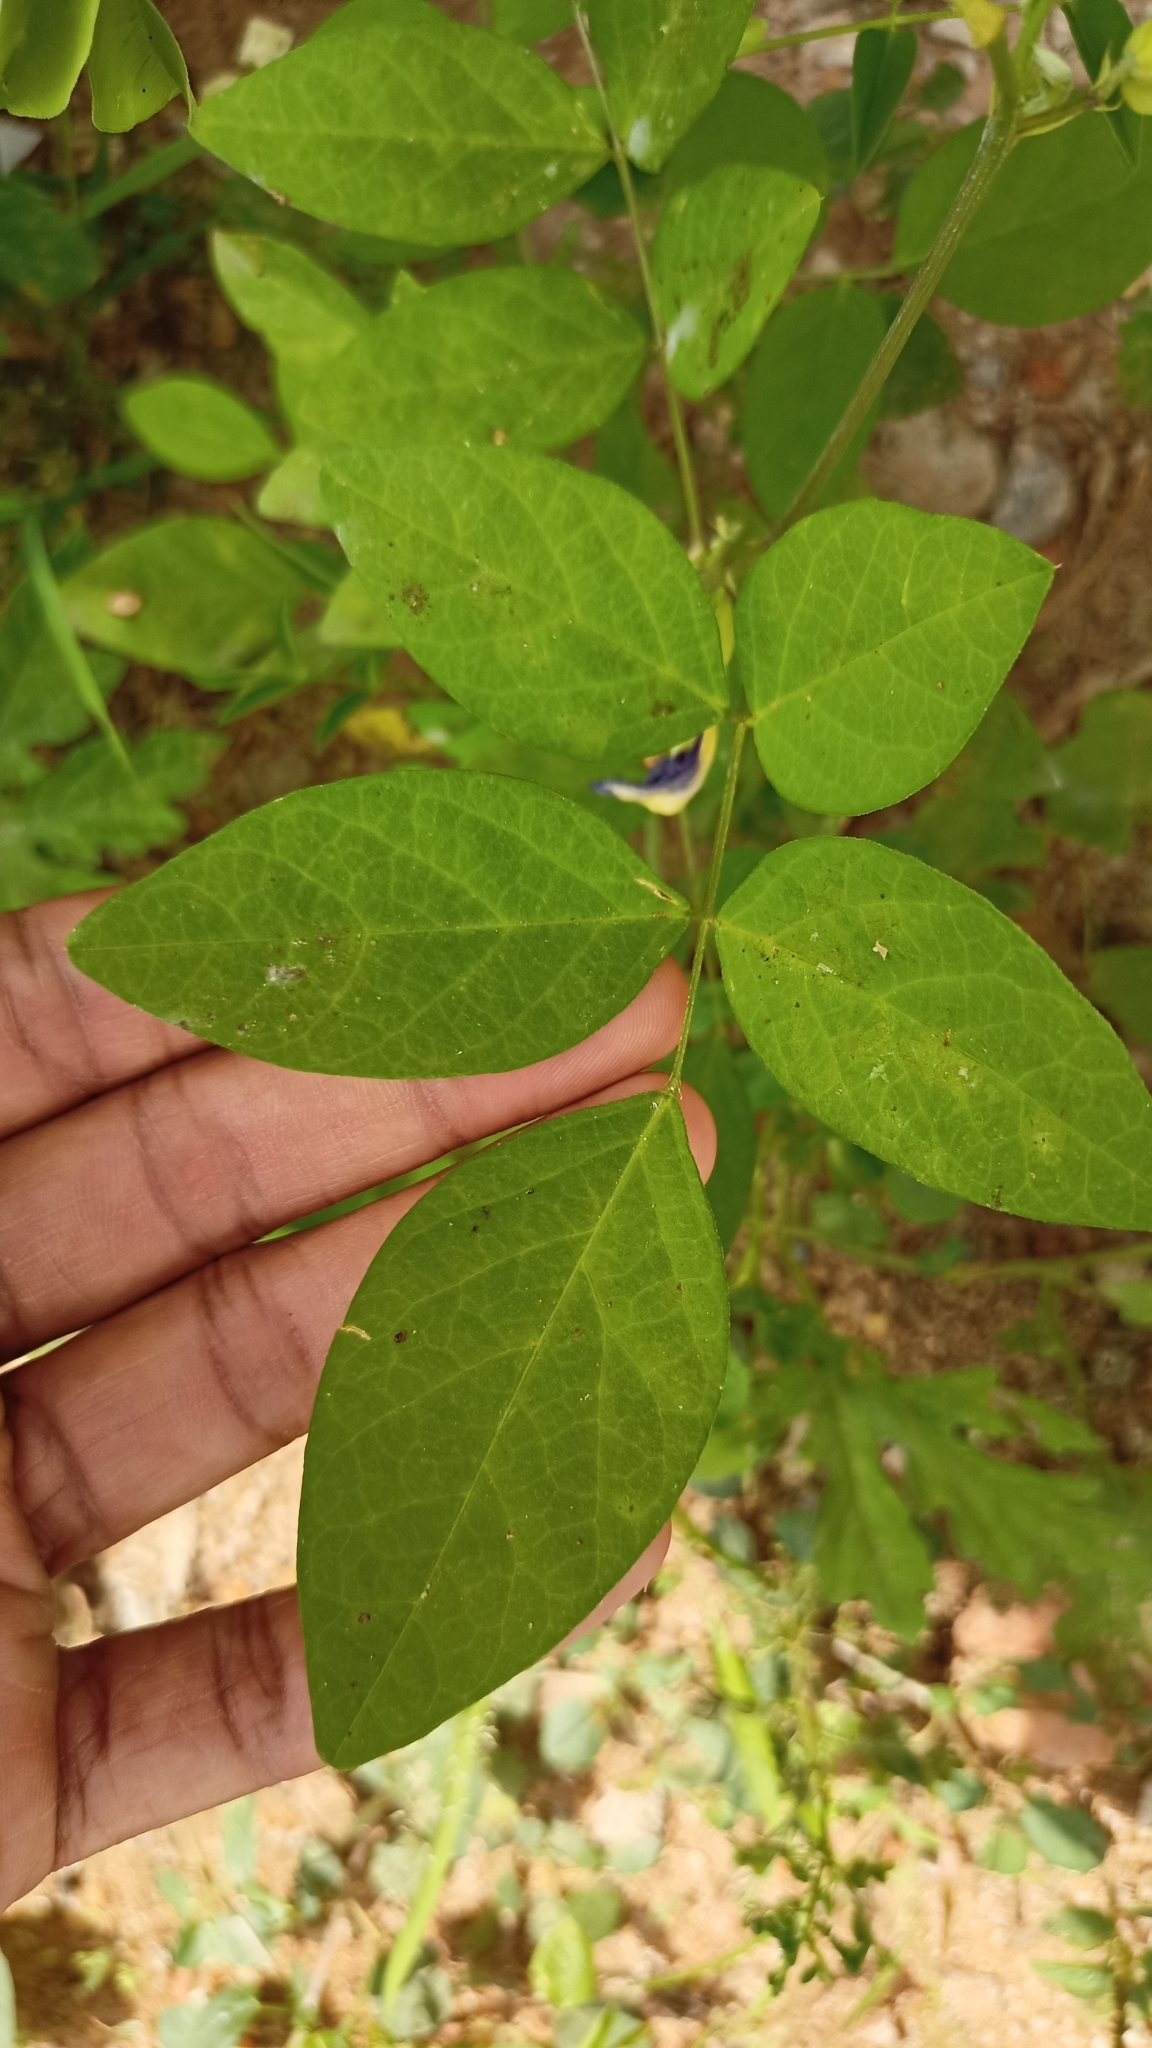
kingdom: Plantae
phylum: Tracheophyta
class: Magnoliopsida
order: Fabales
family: Fabaceae
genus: Clitoria
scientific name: Clitoria ternatea
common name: Asian pigeonwings
